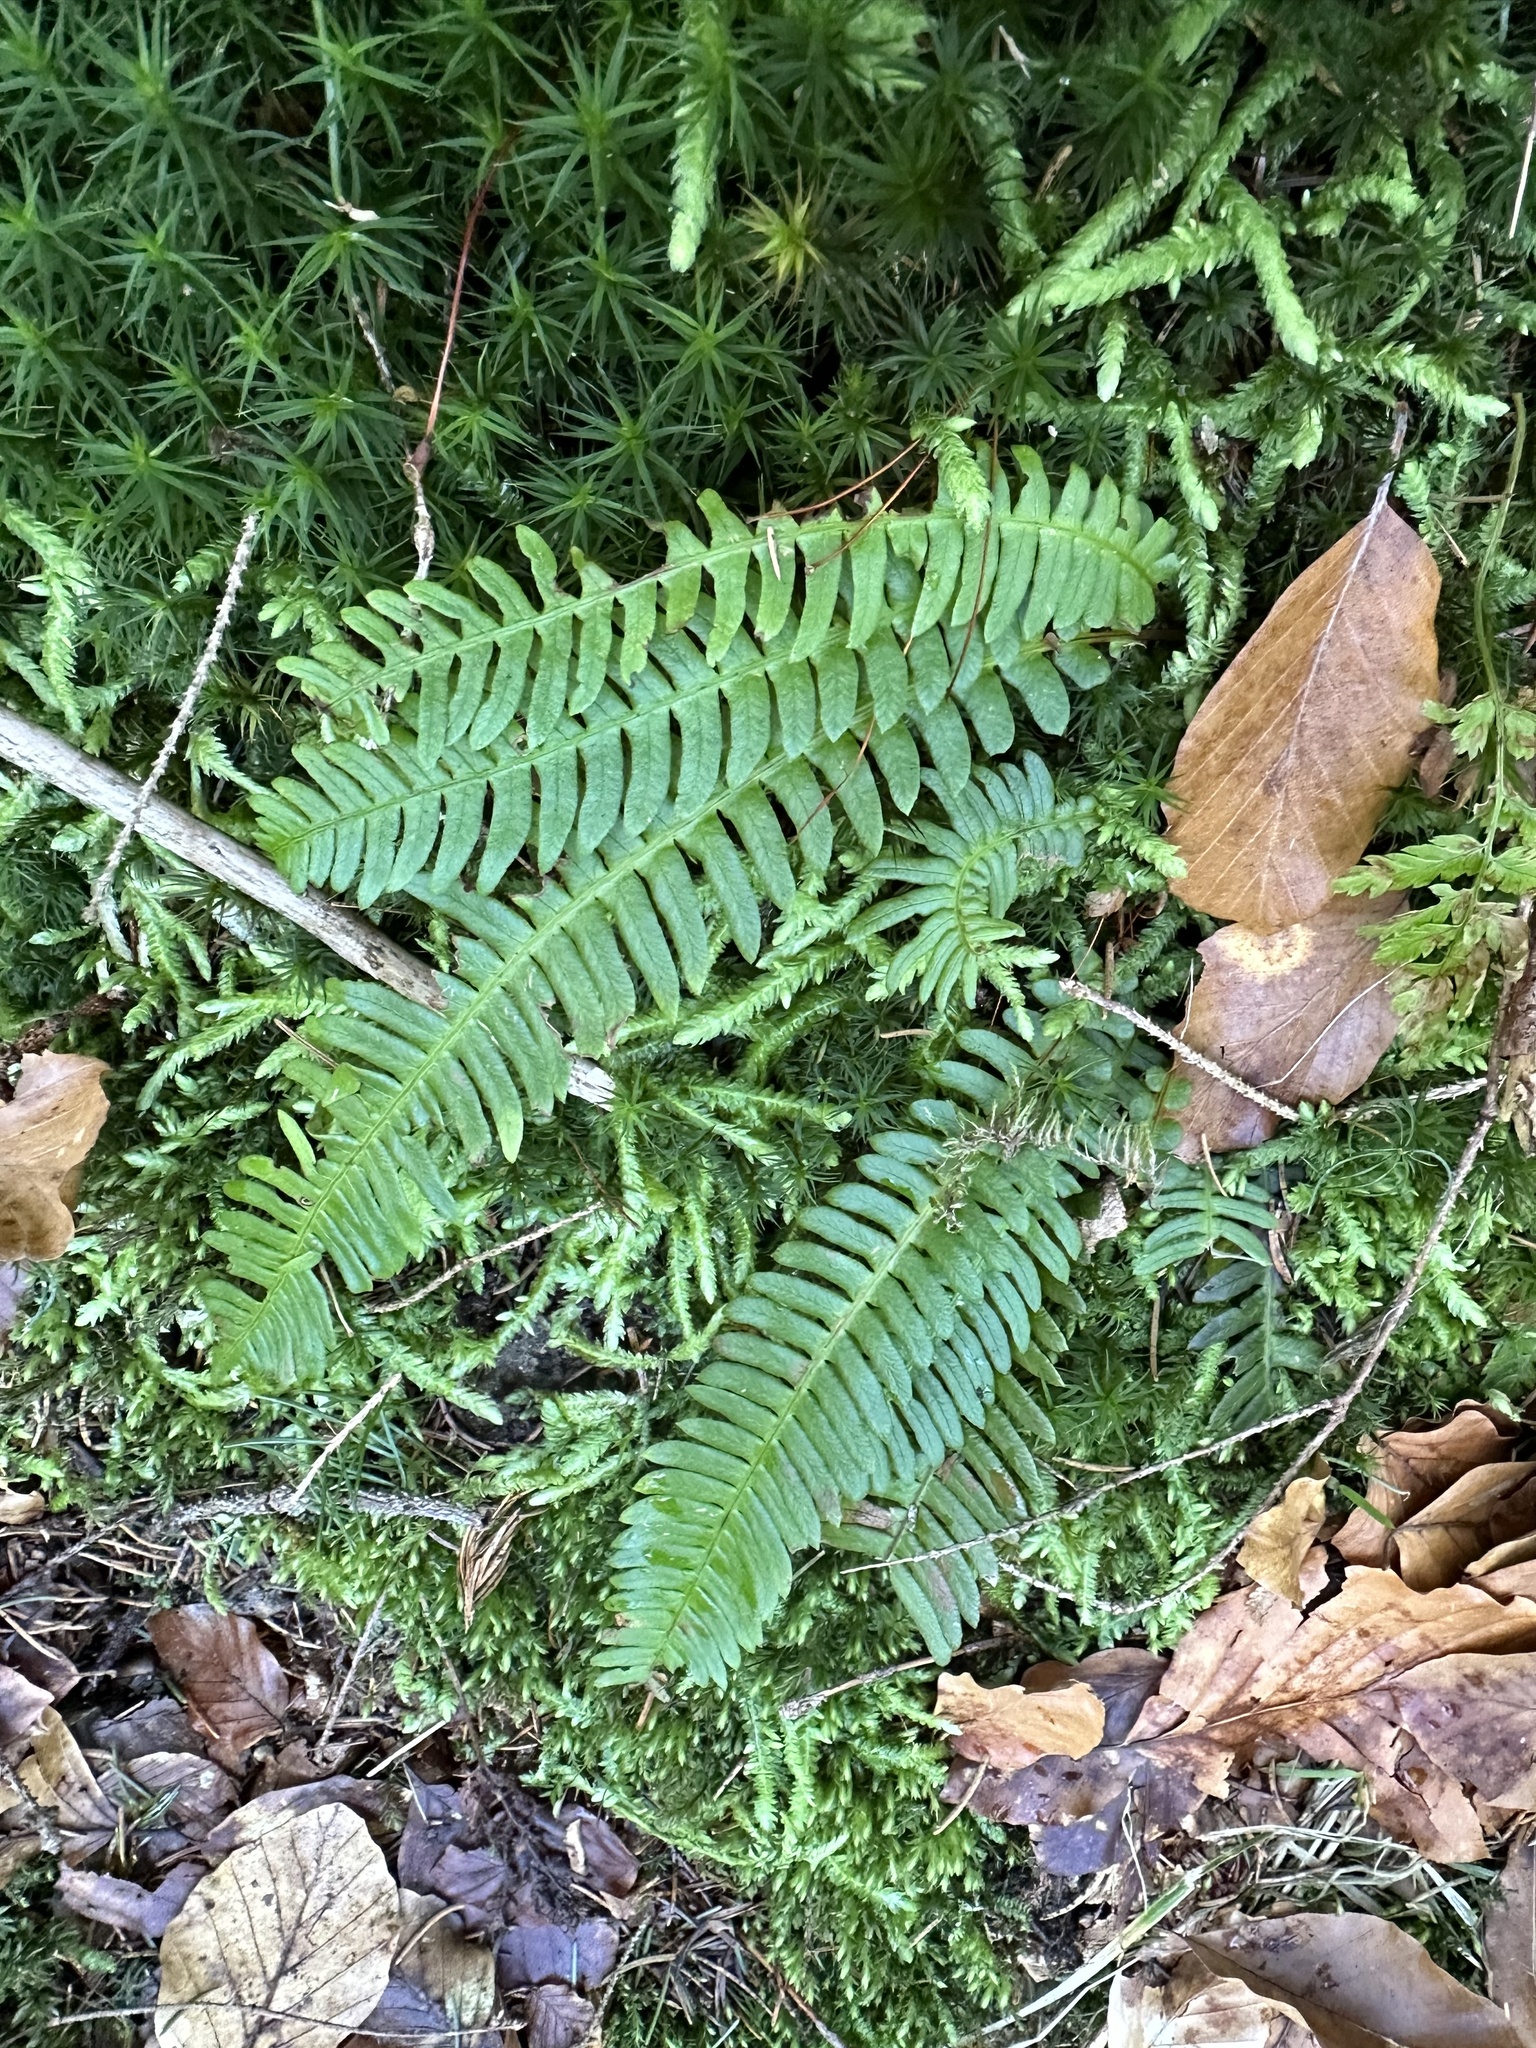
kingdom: Plantae
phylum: Tracheophyta
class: Polypodiopsida
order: Polypodiales
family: Blechnaceae
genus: Struthiopteris
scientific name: Struthiopteris spicant
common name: Deer fern
